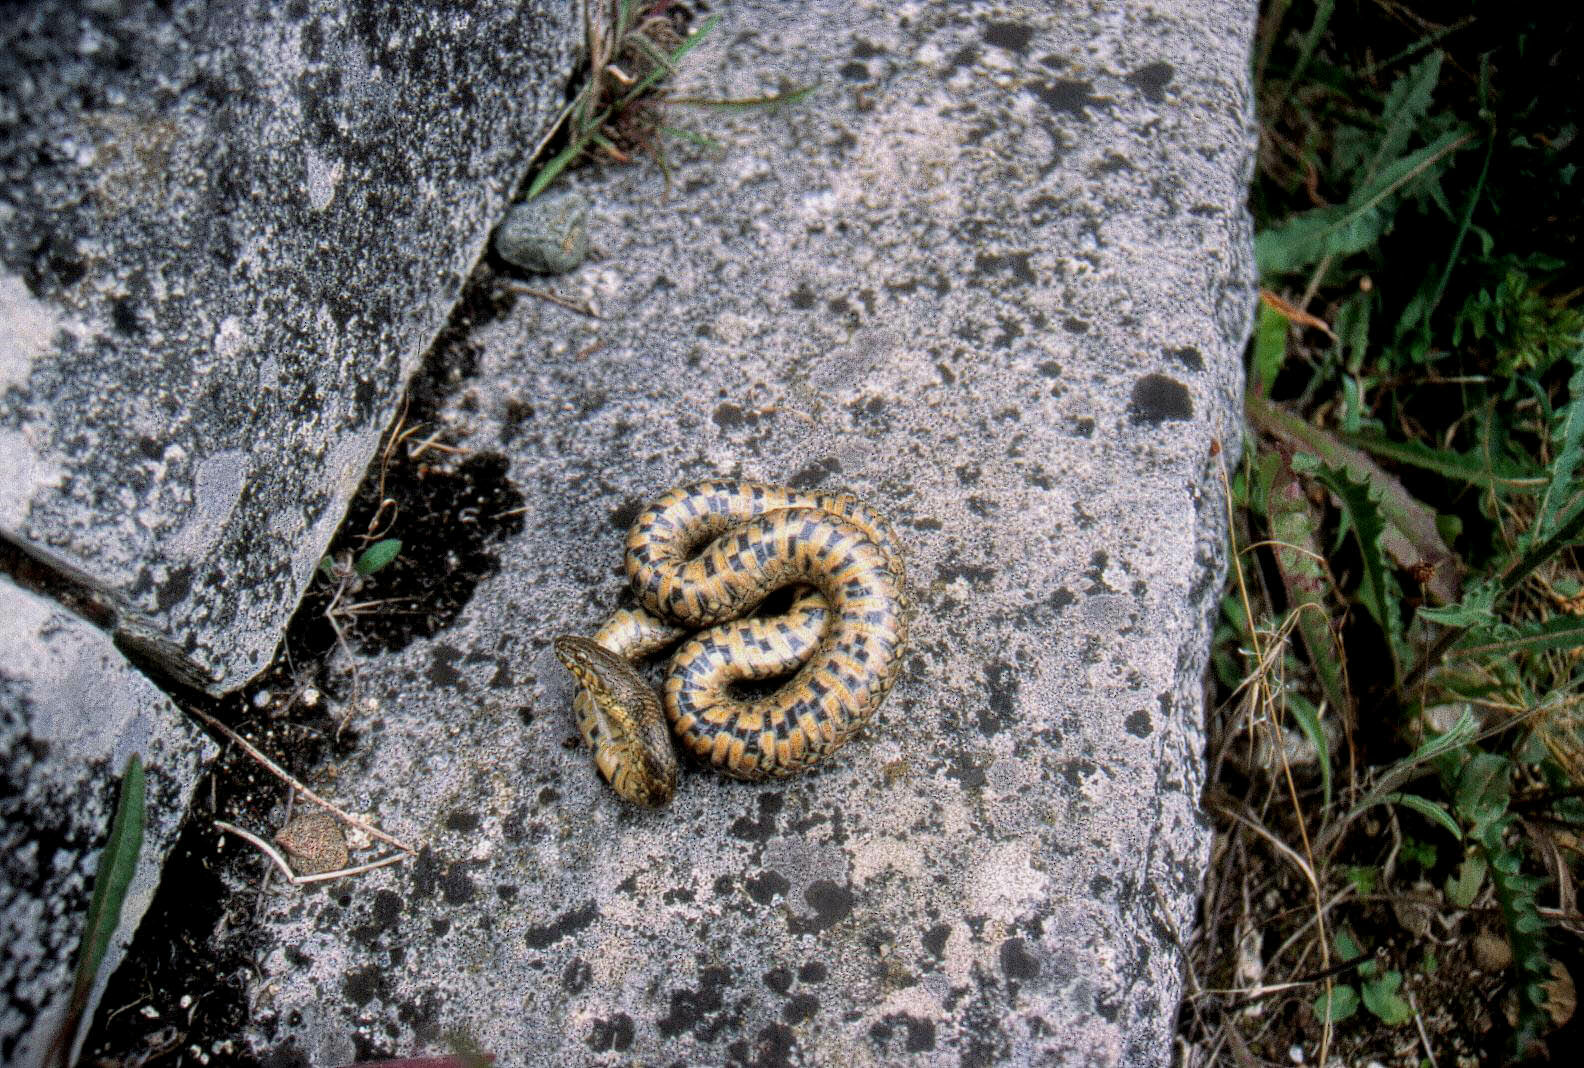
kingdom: Animalia
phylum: Chordata
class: Squamata
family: Colubridae
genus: Natrix
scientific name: Natrix maura
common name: Viperine water snake
